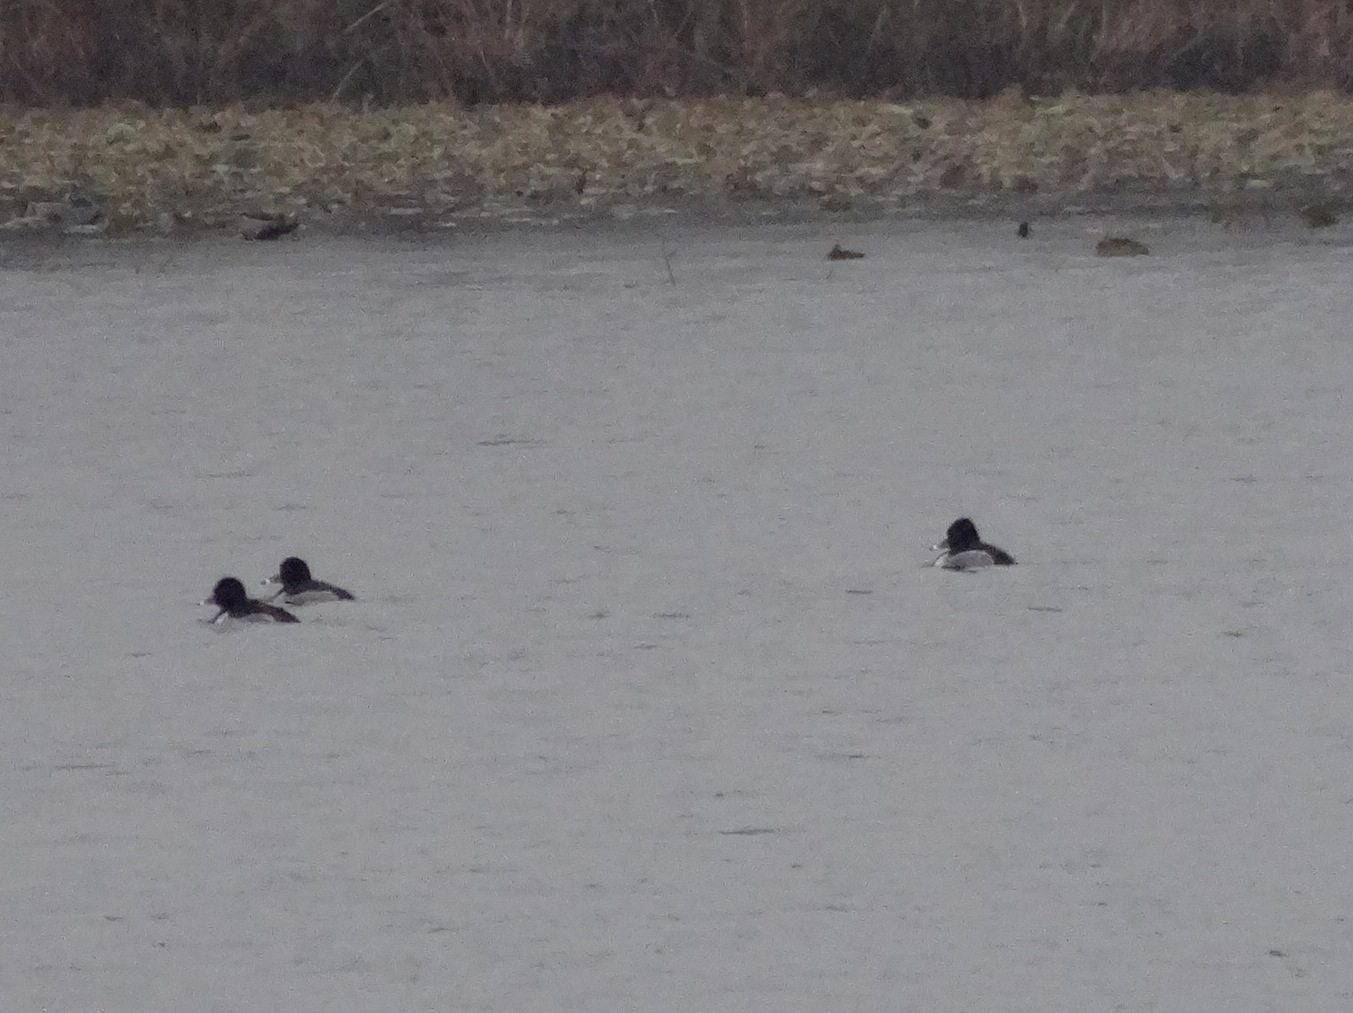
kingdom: Animalia
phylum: Chordata
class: Aves
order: Anseriformes
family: Anatidae
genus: Aythya
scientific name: Aythya collaris
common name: Ring-necked duck
